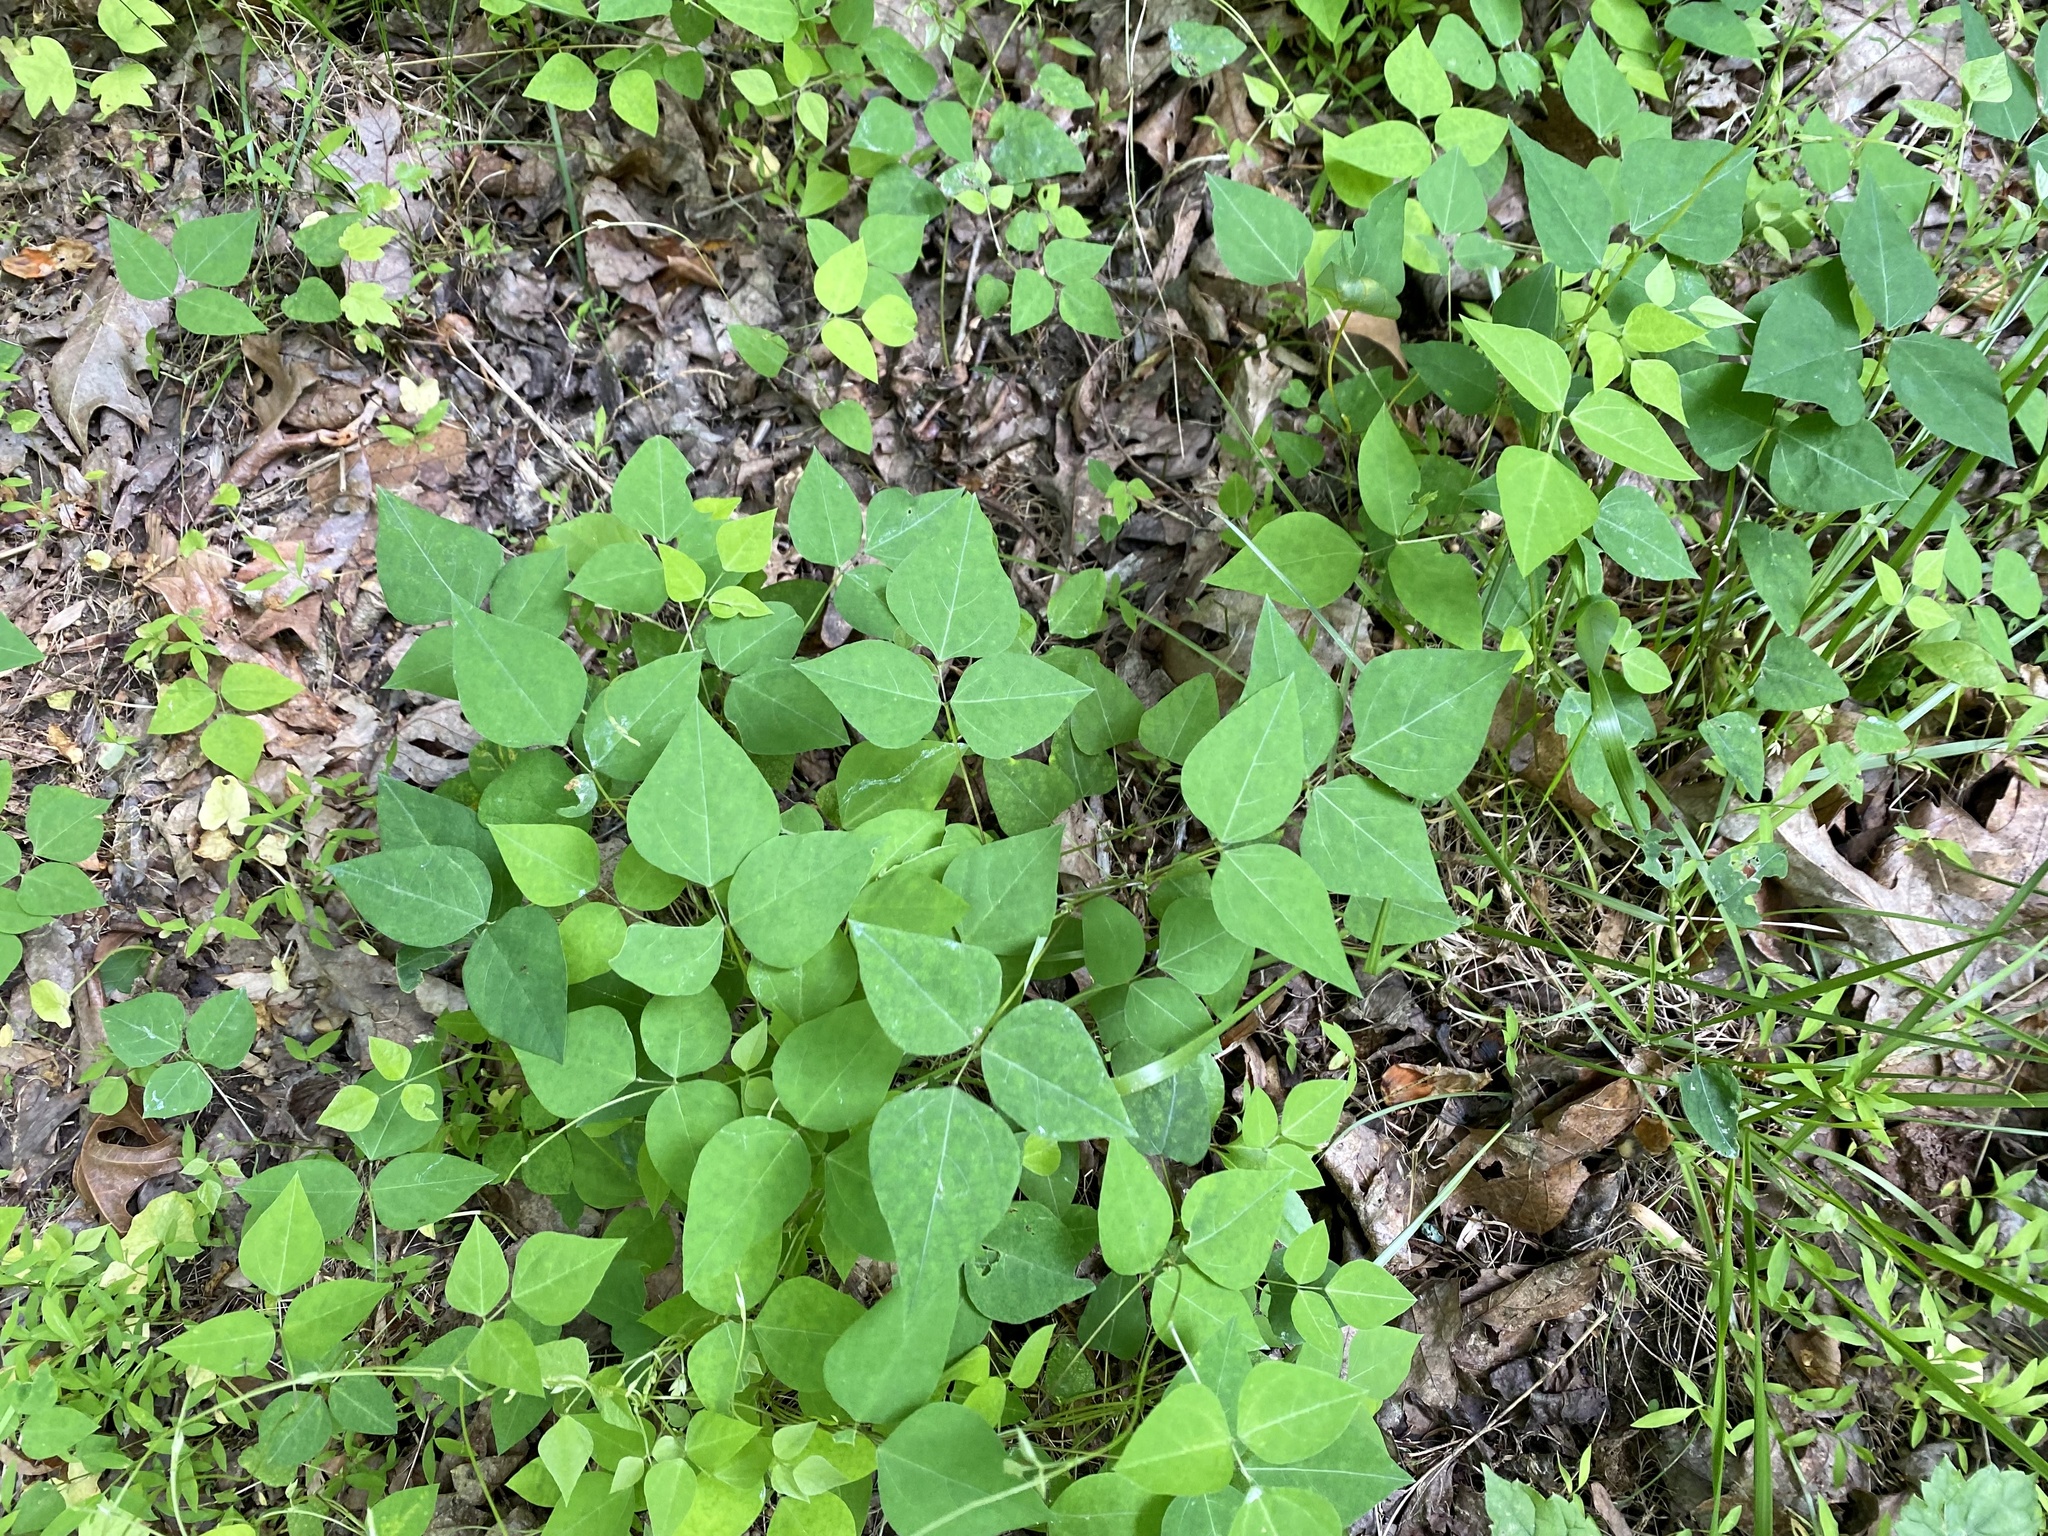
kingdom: Plantae
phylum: Tracheophyta
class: Magnoliopsida
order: Fabales
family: Fabaceae
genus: Amphicarpaea
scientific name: Amphicarpaea bracteata
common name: American hog peanut
